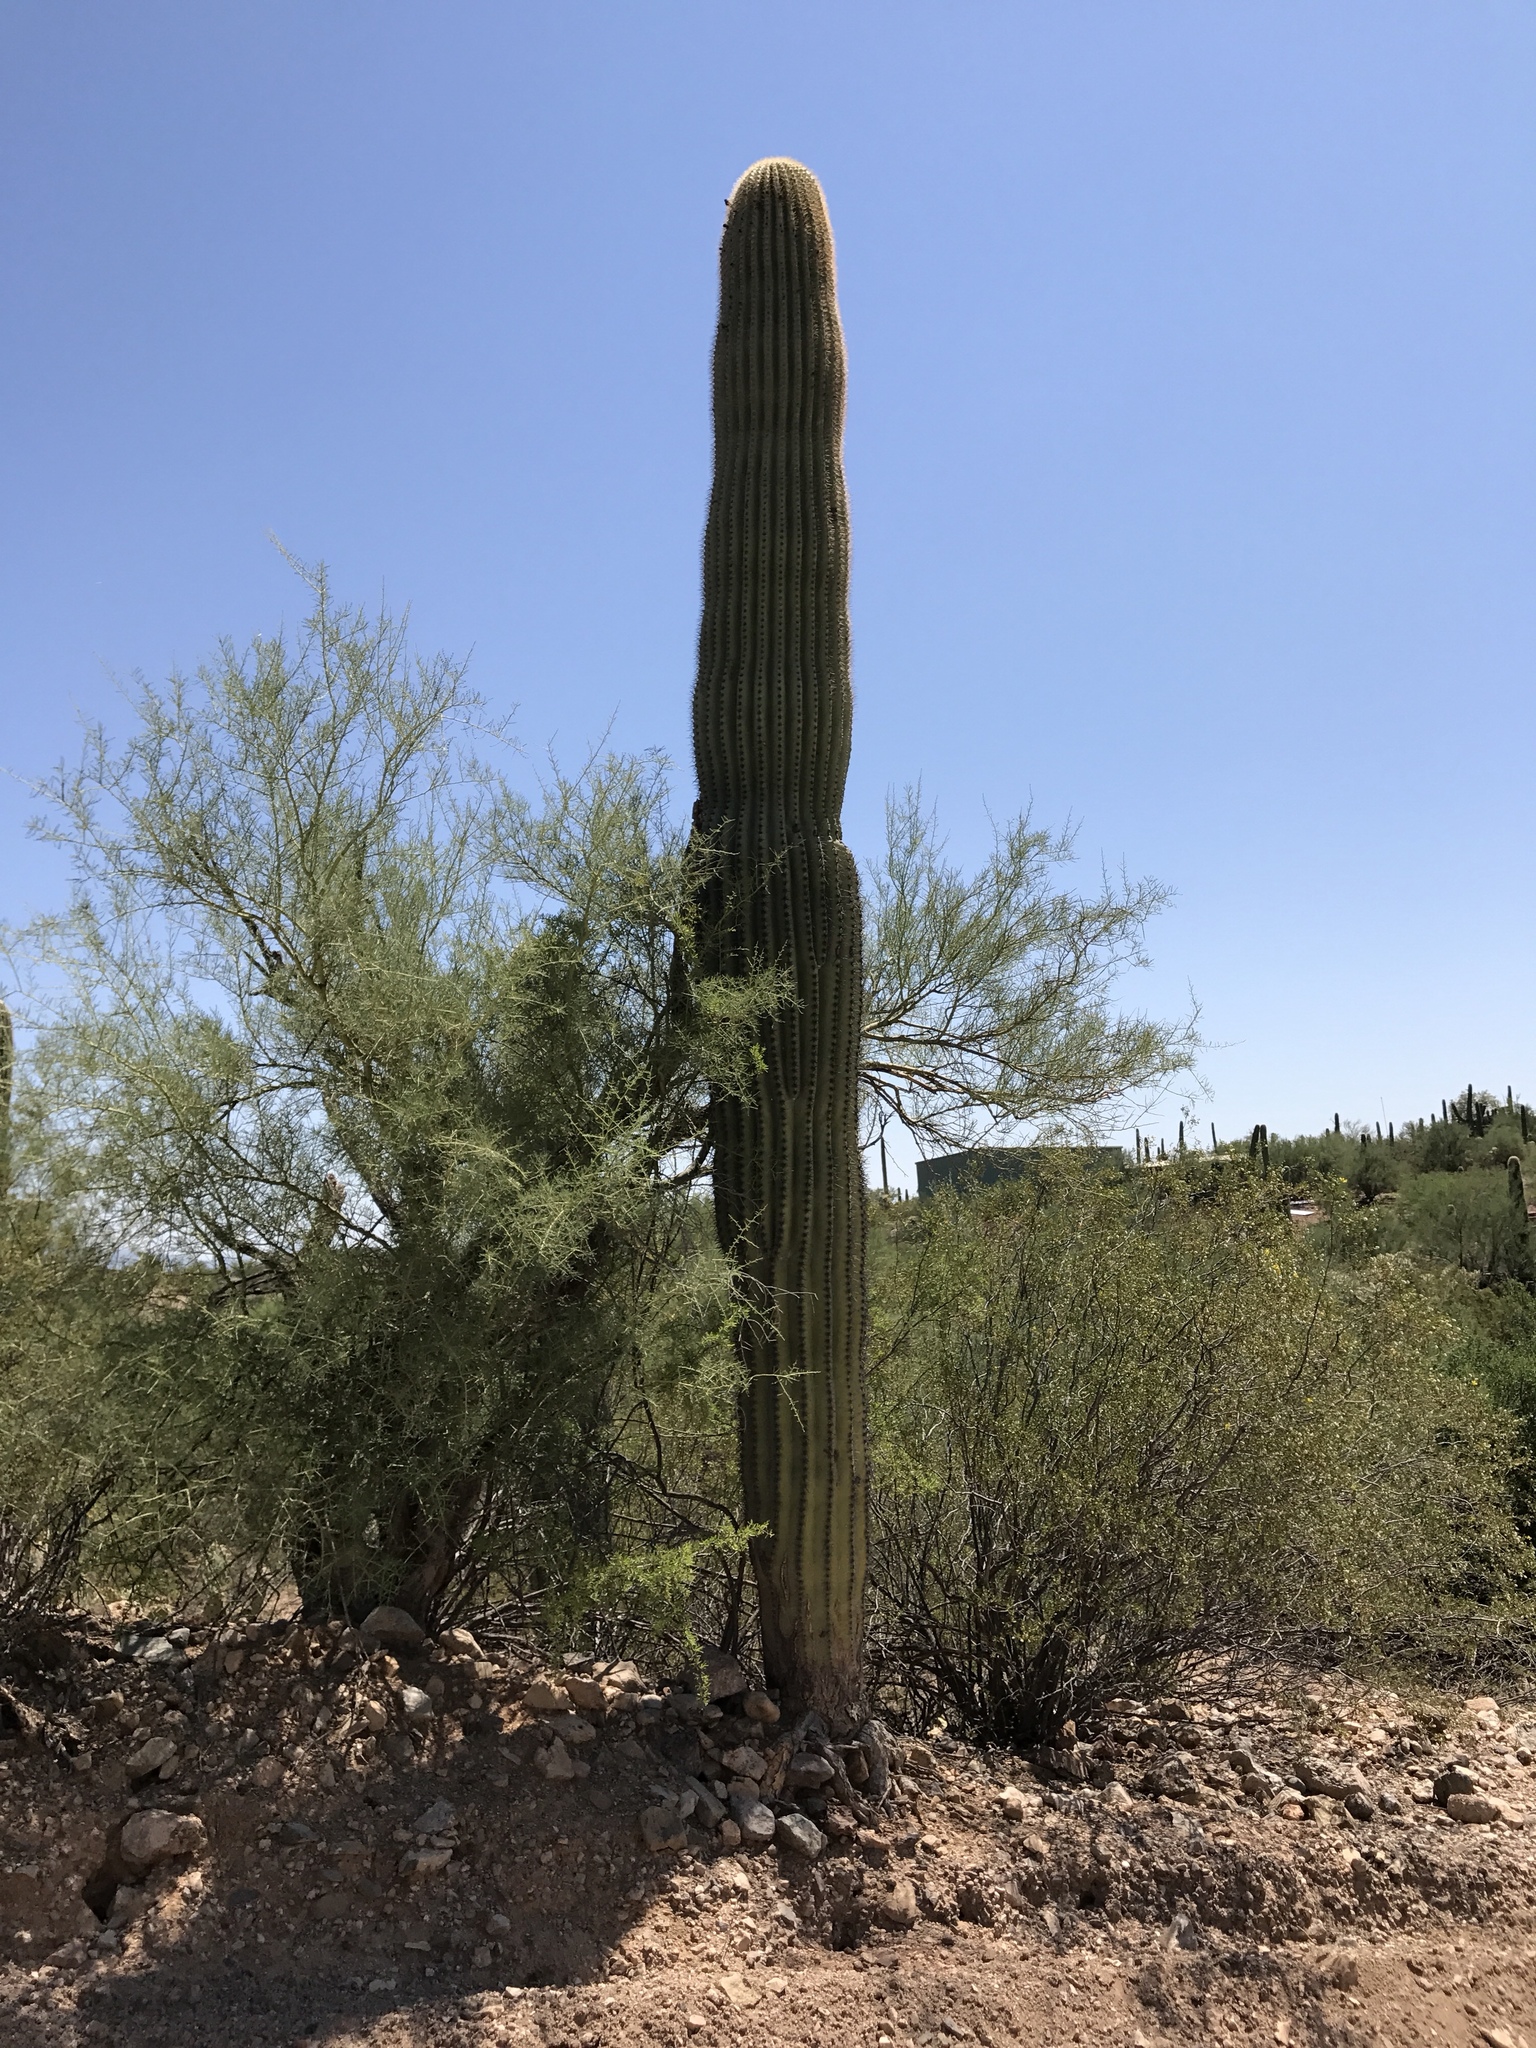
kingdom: Plantae
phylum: Tracheophyta
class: Magnoliopsida
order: Caryophyllales
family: Cactaceae
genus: Carnegiea
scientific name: Carnegiea gigantea
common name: Saguaro
